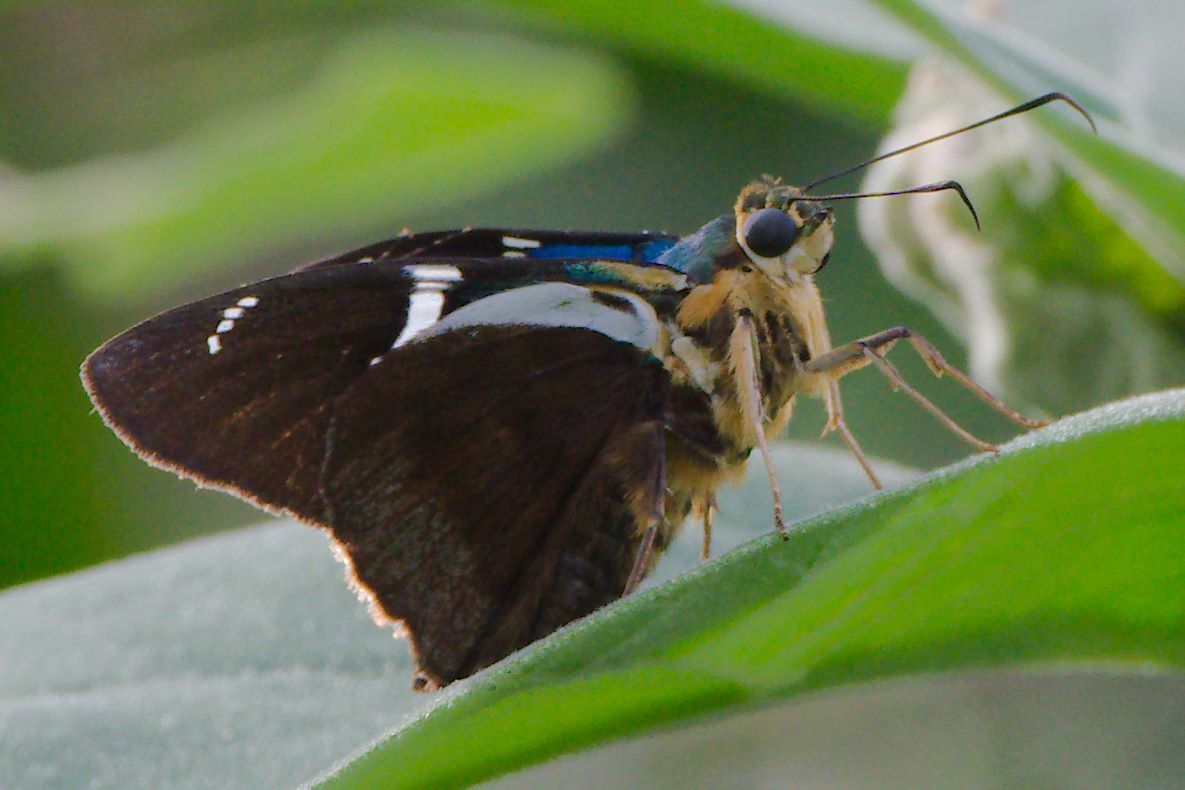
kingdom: Animalia
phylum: Arthropoda
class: Insecta
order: Lepidoptera
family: Hesperiidae
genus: Astraptes
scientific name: Astraptes fulgerator
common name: Two-barred flasher
